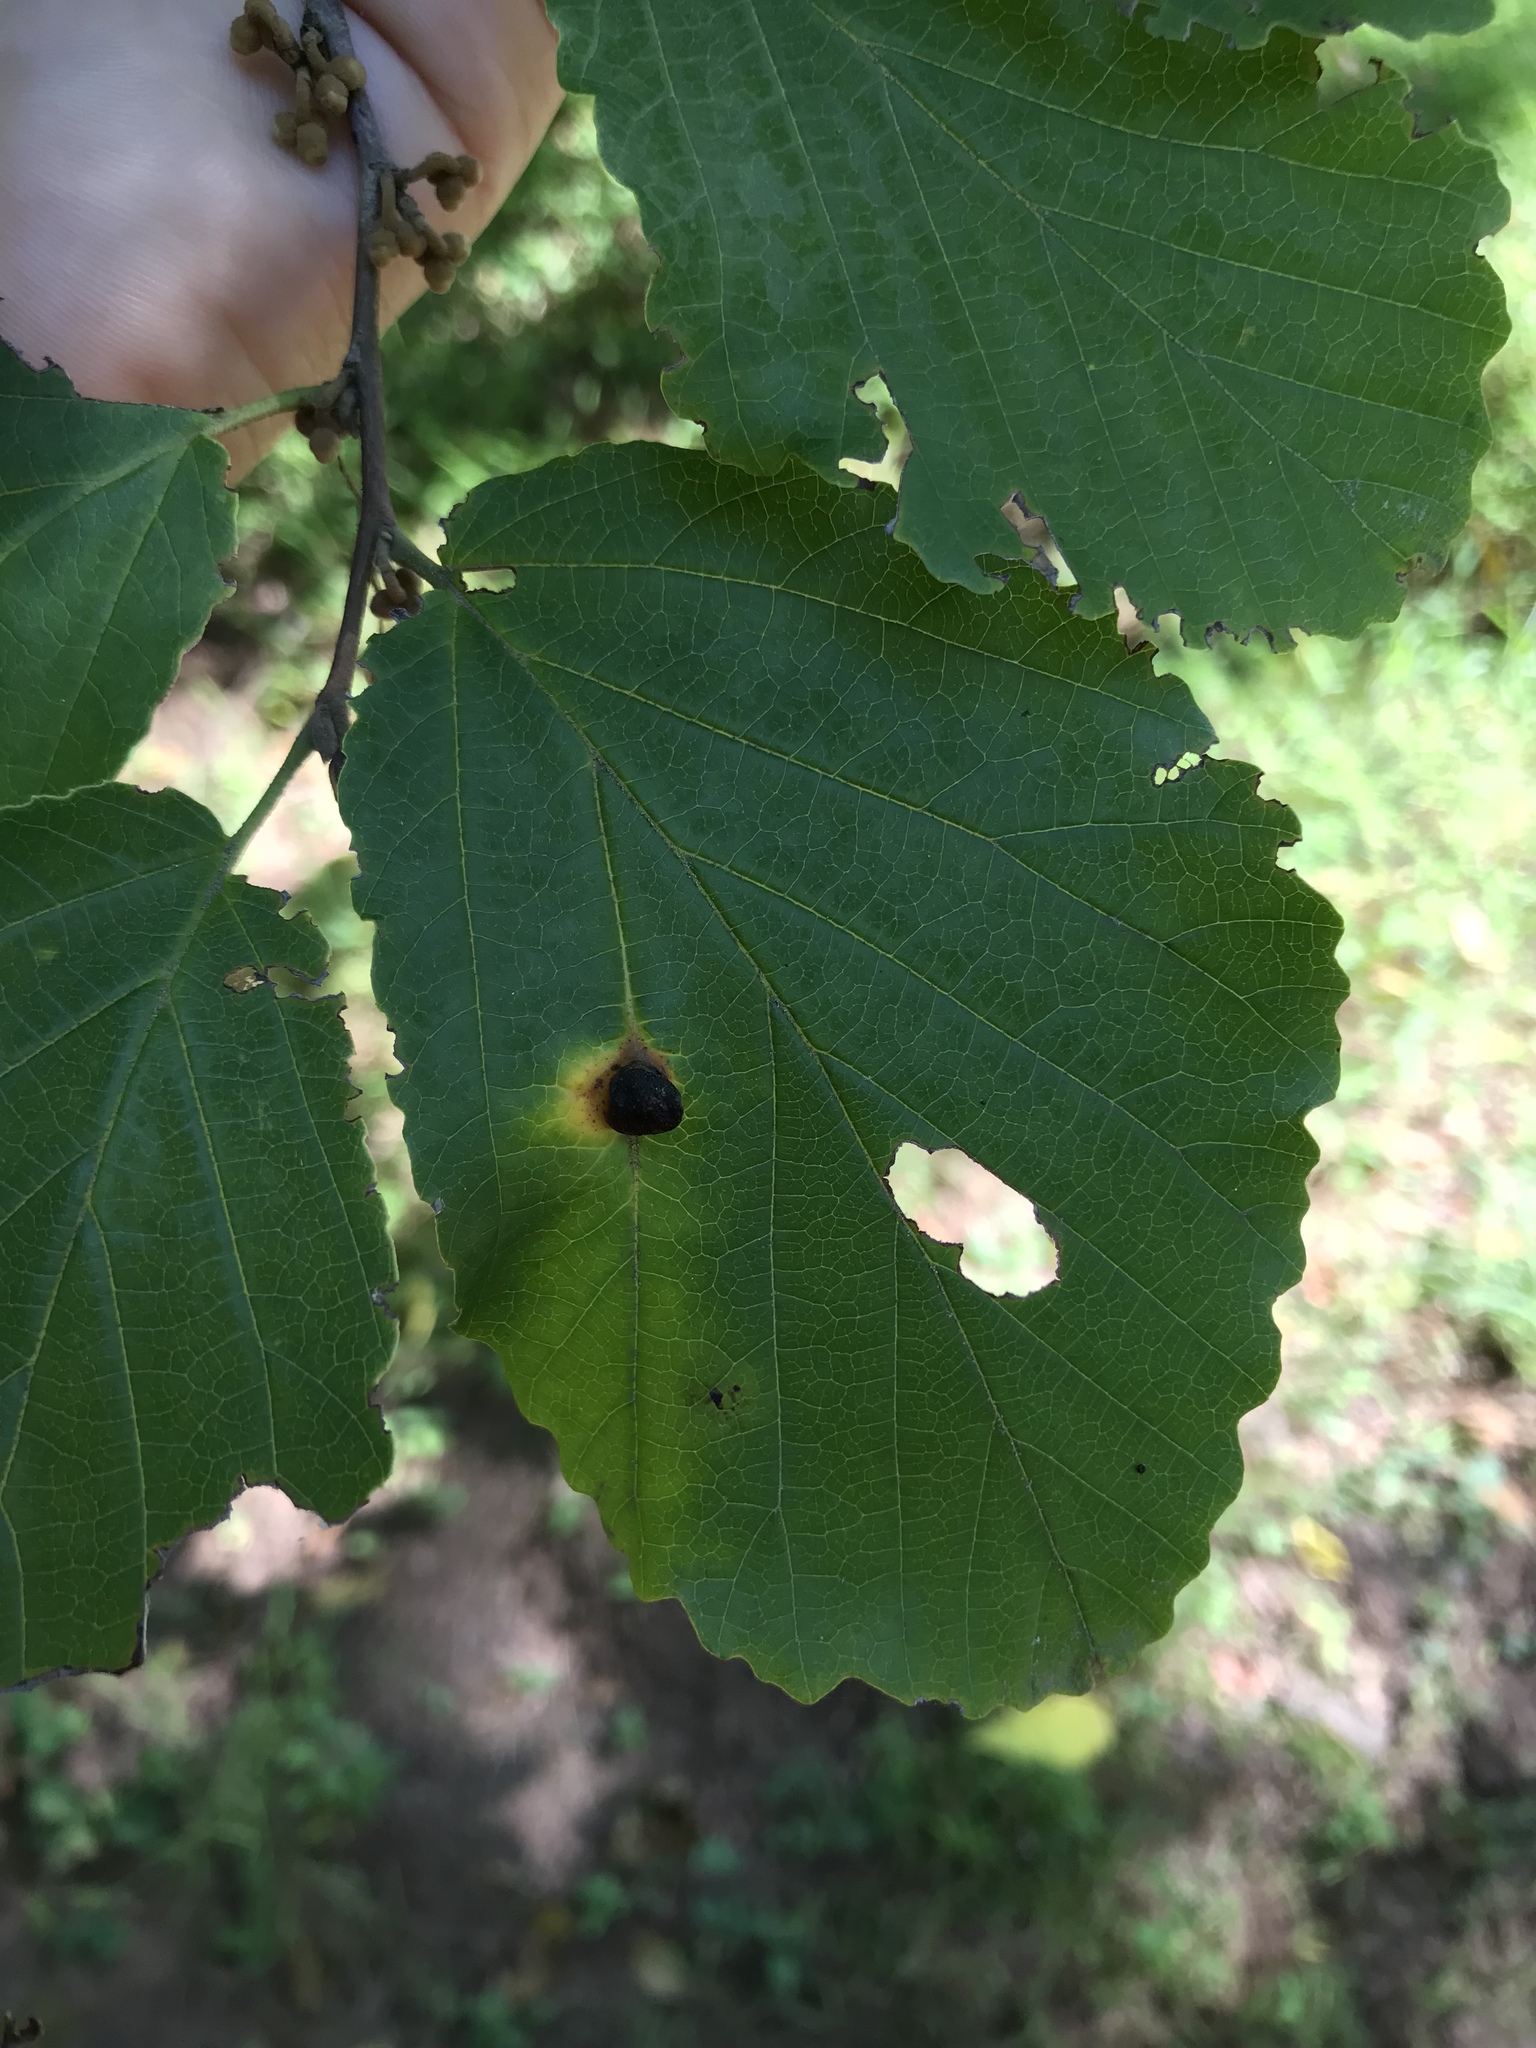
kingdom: Plantae
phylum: Tracheophyta
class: Magnoliopsida
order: Saxifragales
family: Hamamelidaceae
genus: Hamamelis
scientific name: Hamamelis virginiana
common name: Witch-hazel
